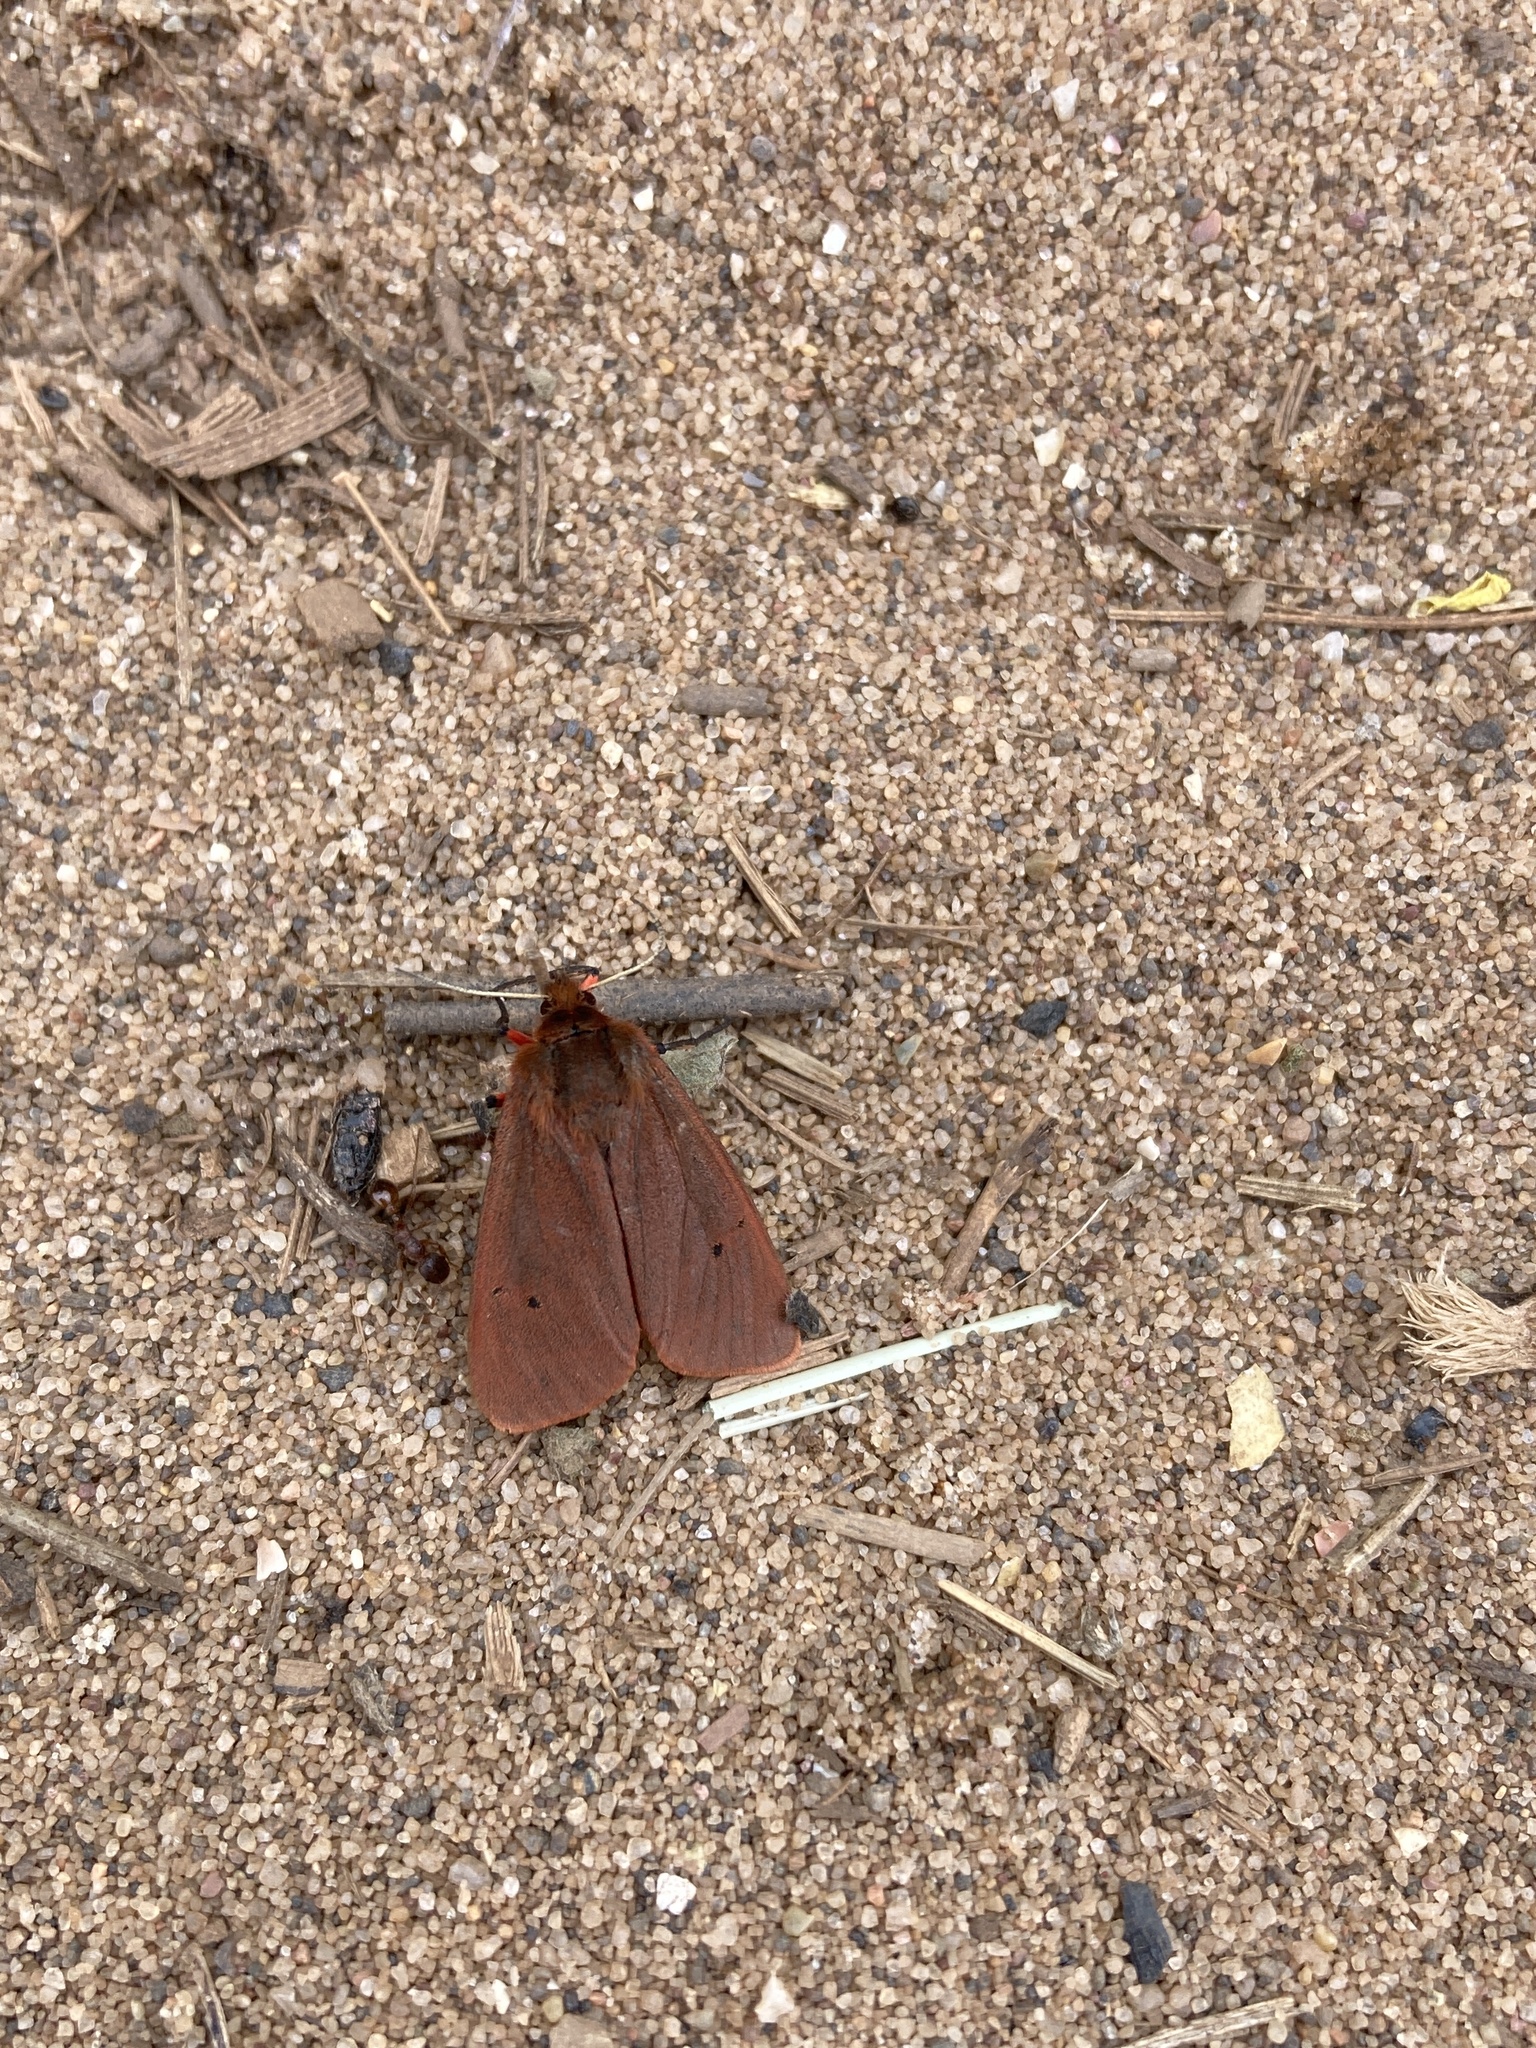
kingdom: Animalia
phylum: Arthropoda
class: Insecta
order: Lepidoptera
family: Erebidae
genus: Phragmatobia
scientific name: Phragmatobia fuliginosa
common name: Ruby tiger
